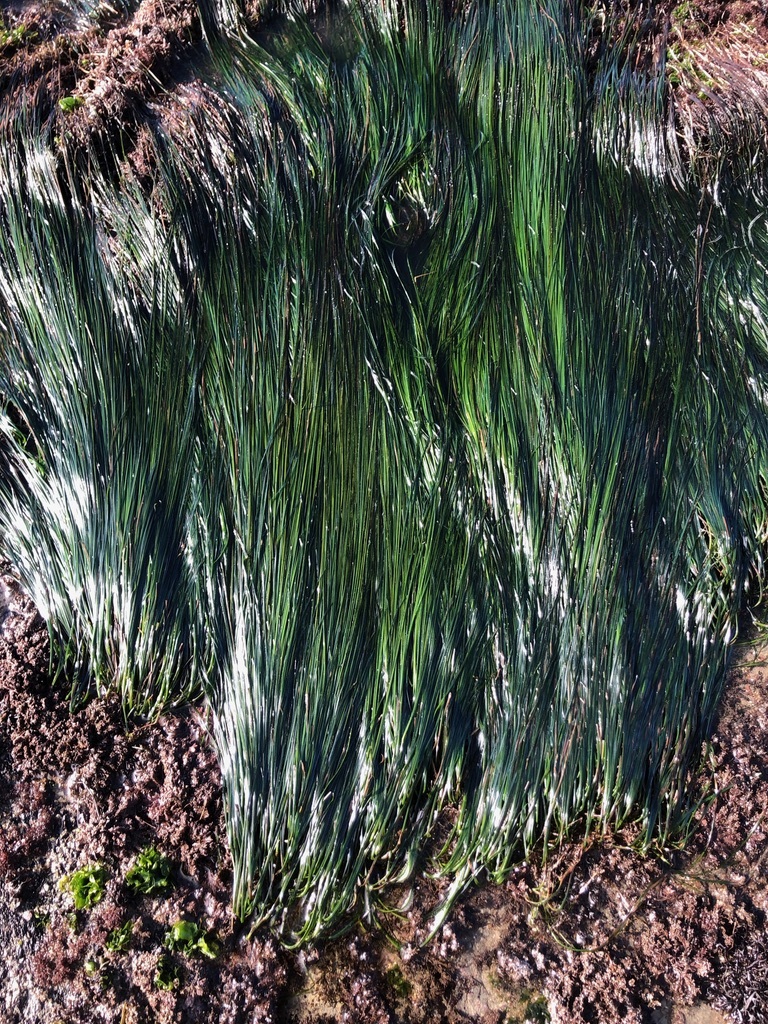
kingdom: Plantae
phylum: Tracheophyta
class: Liliopsida
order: Alismatales
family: Zosteraceae
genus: Phyllospadix
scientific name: Phyllospadix torreyi
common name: Surfgrass
